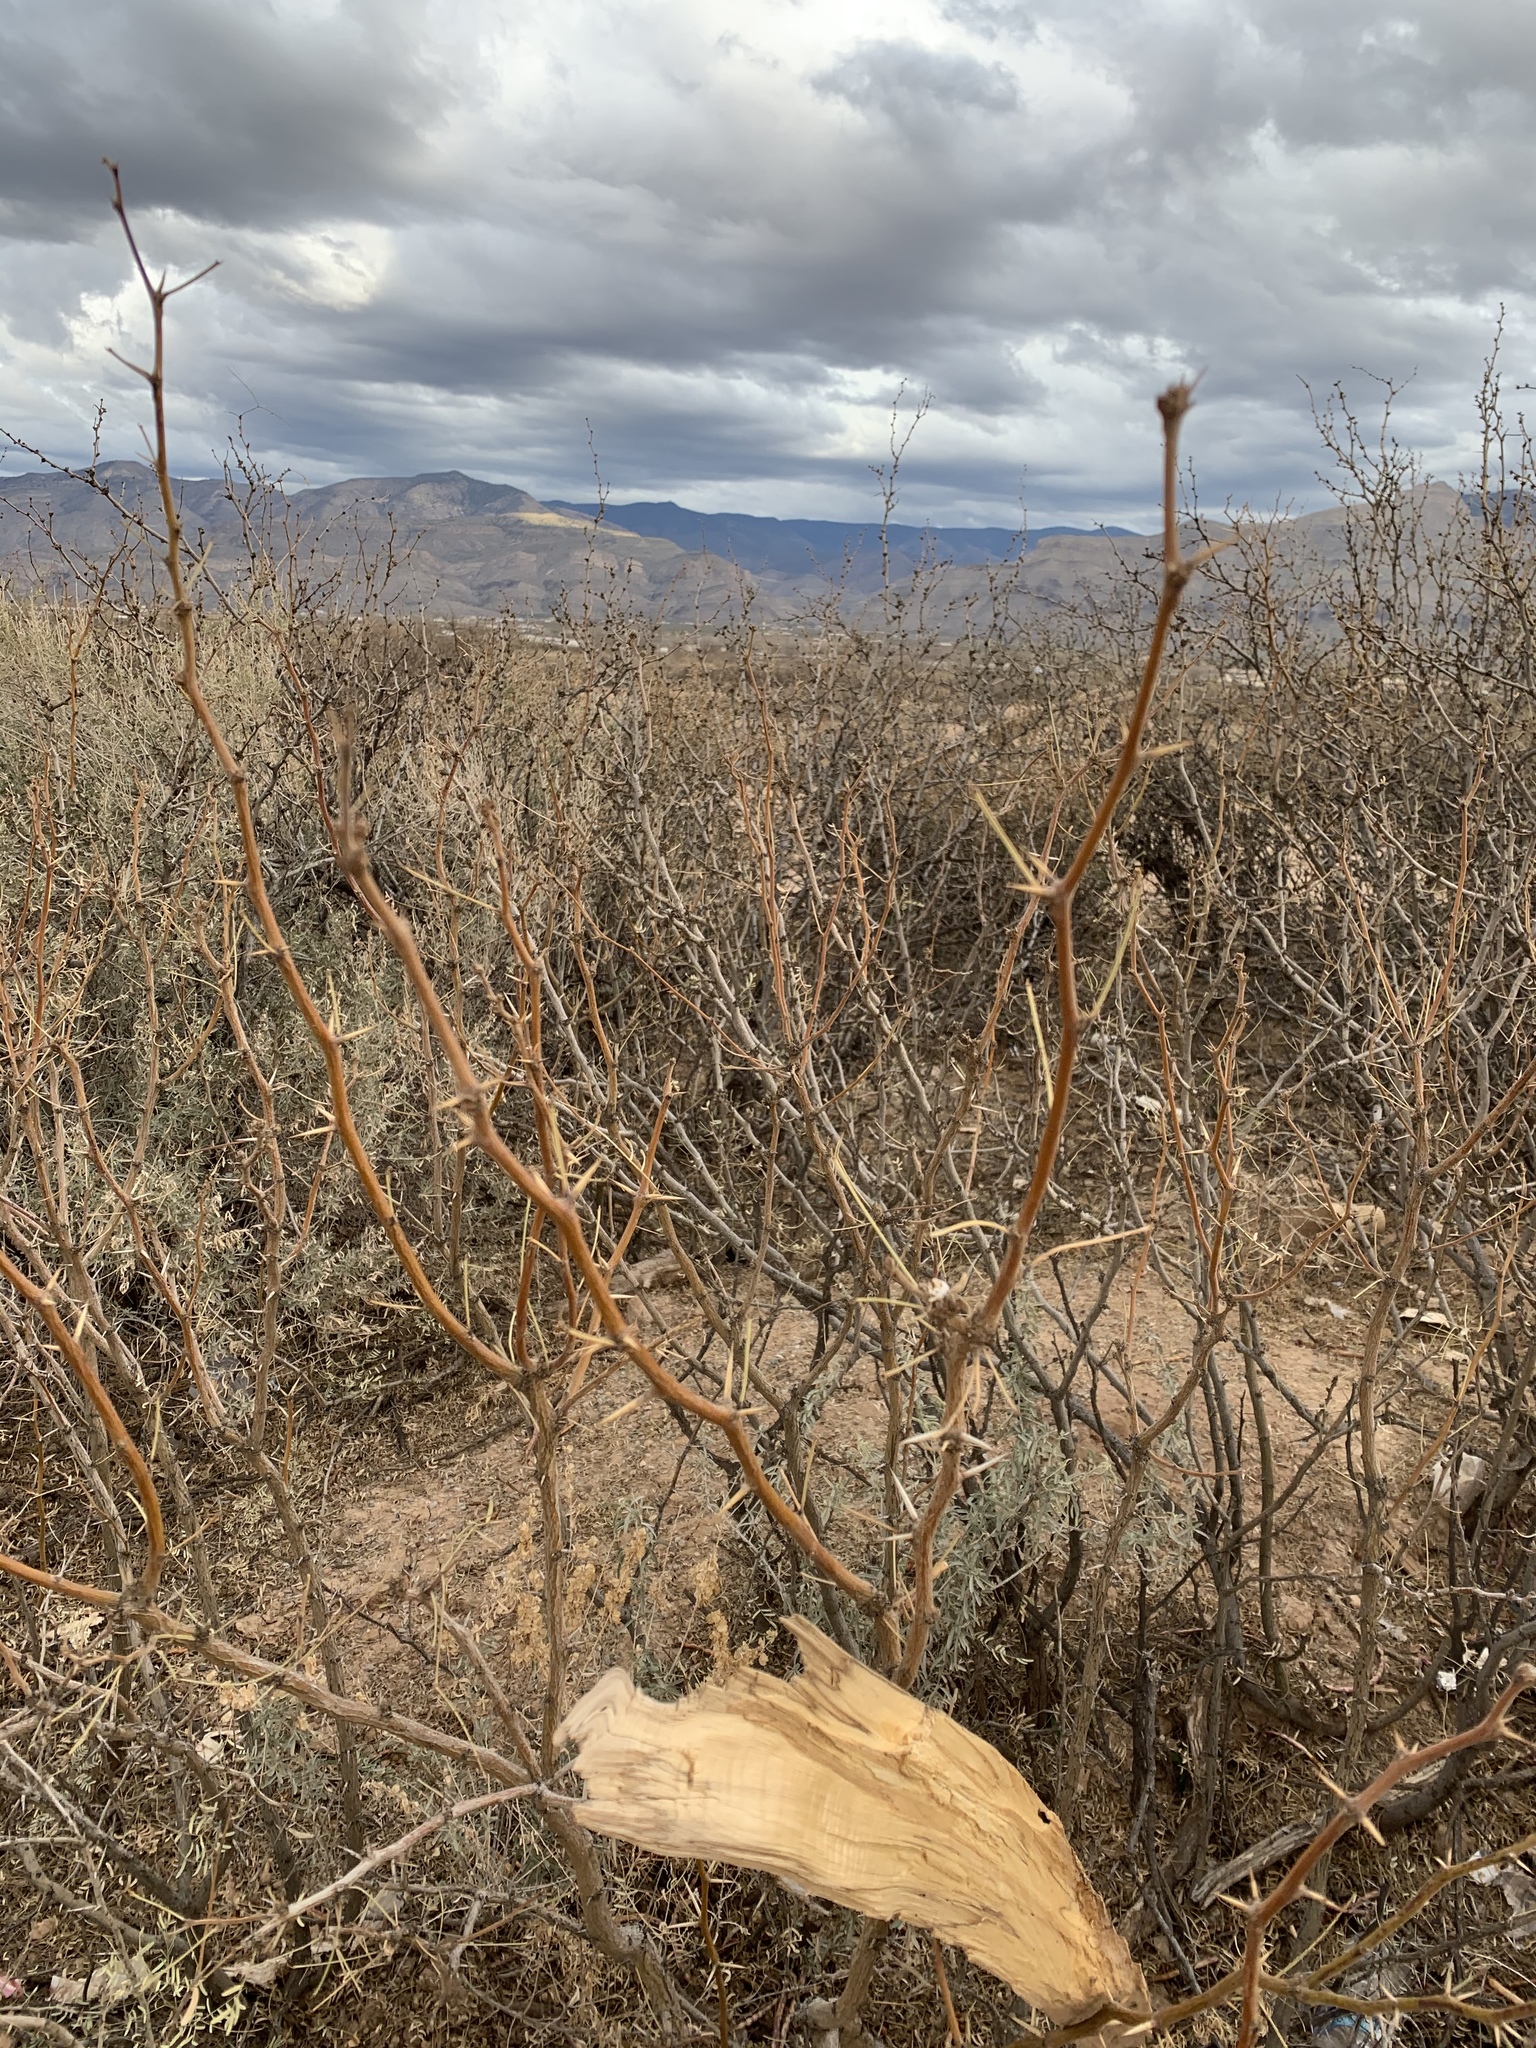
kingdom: Plantae
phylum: Tracheophyta
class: Magnoliopsida
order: Fabales
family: Fabaceae
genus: Prosopis
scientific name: Prosopis glandulosa
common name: Honey mesquite
